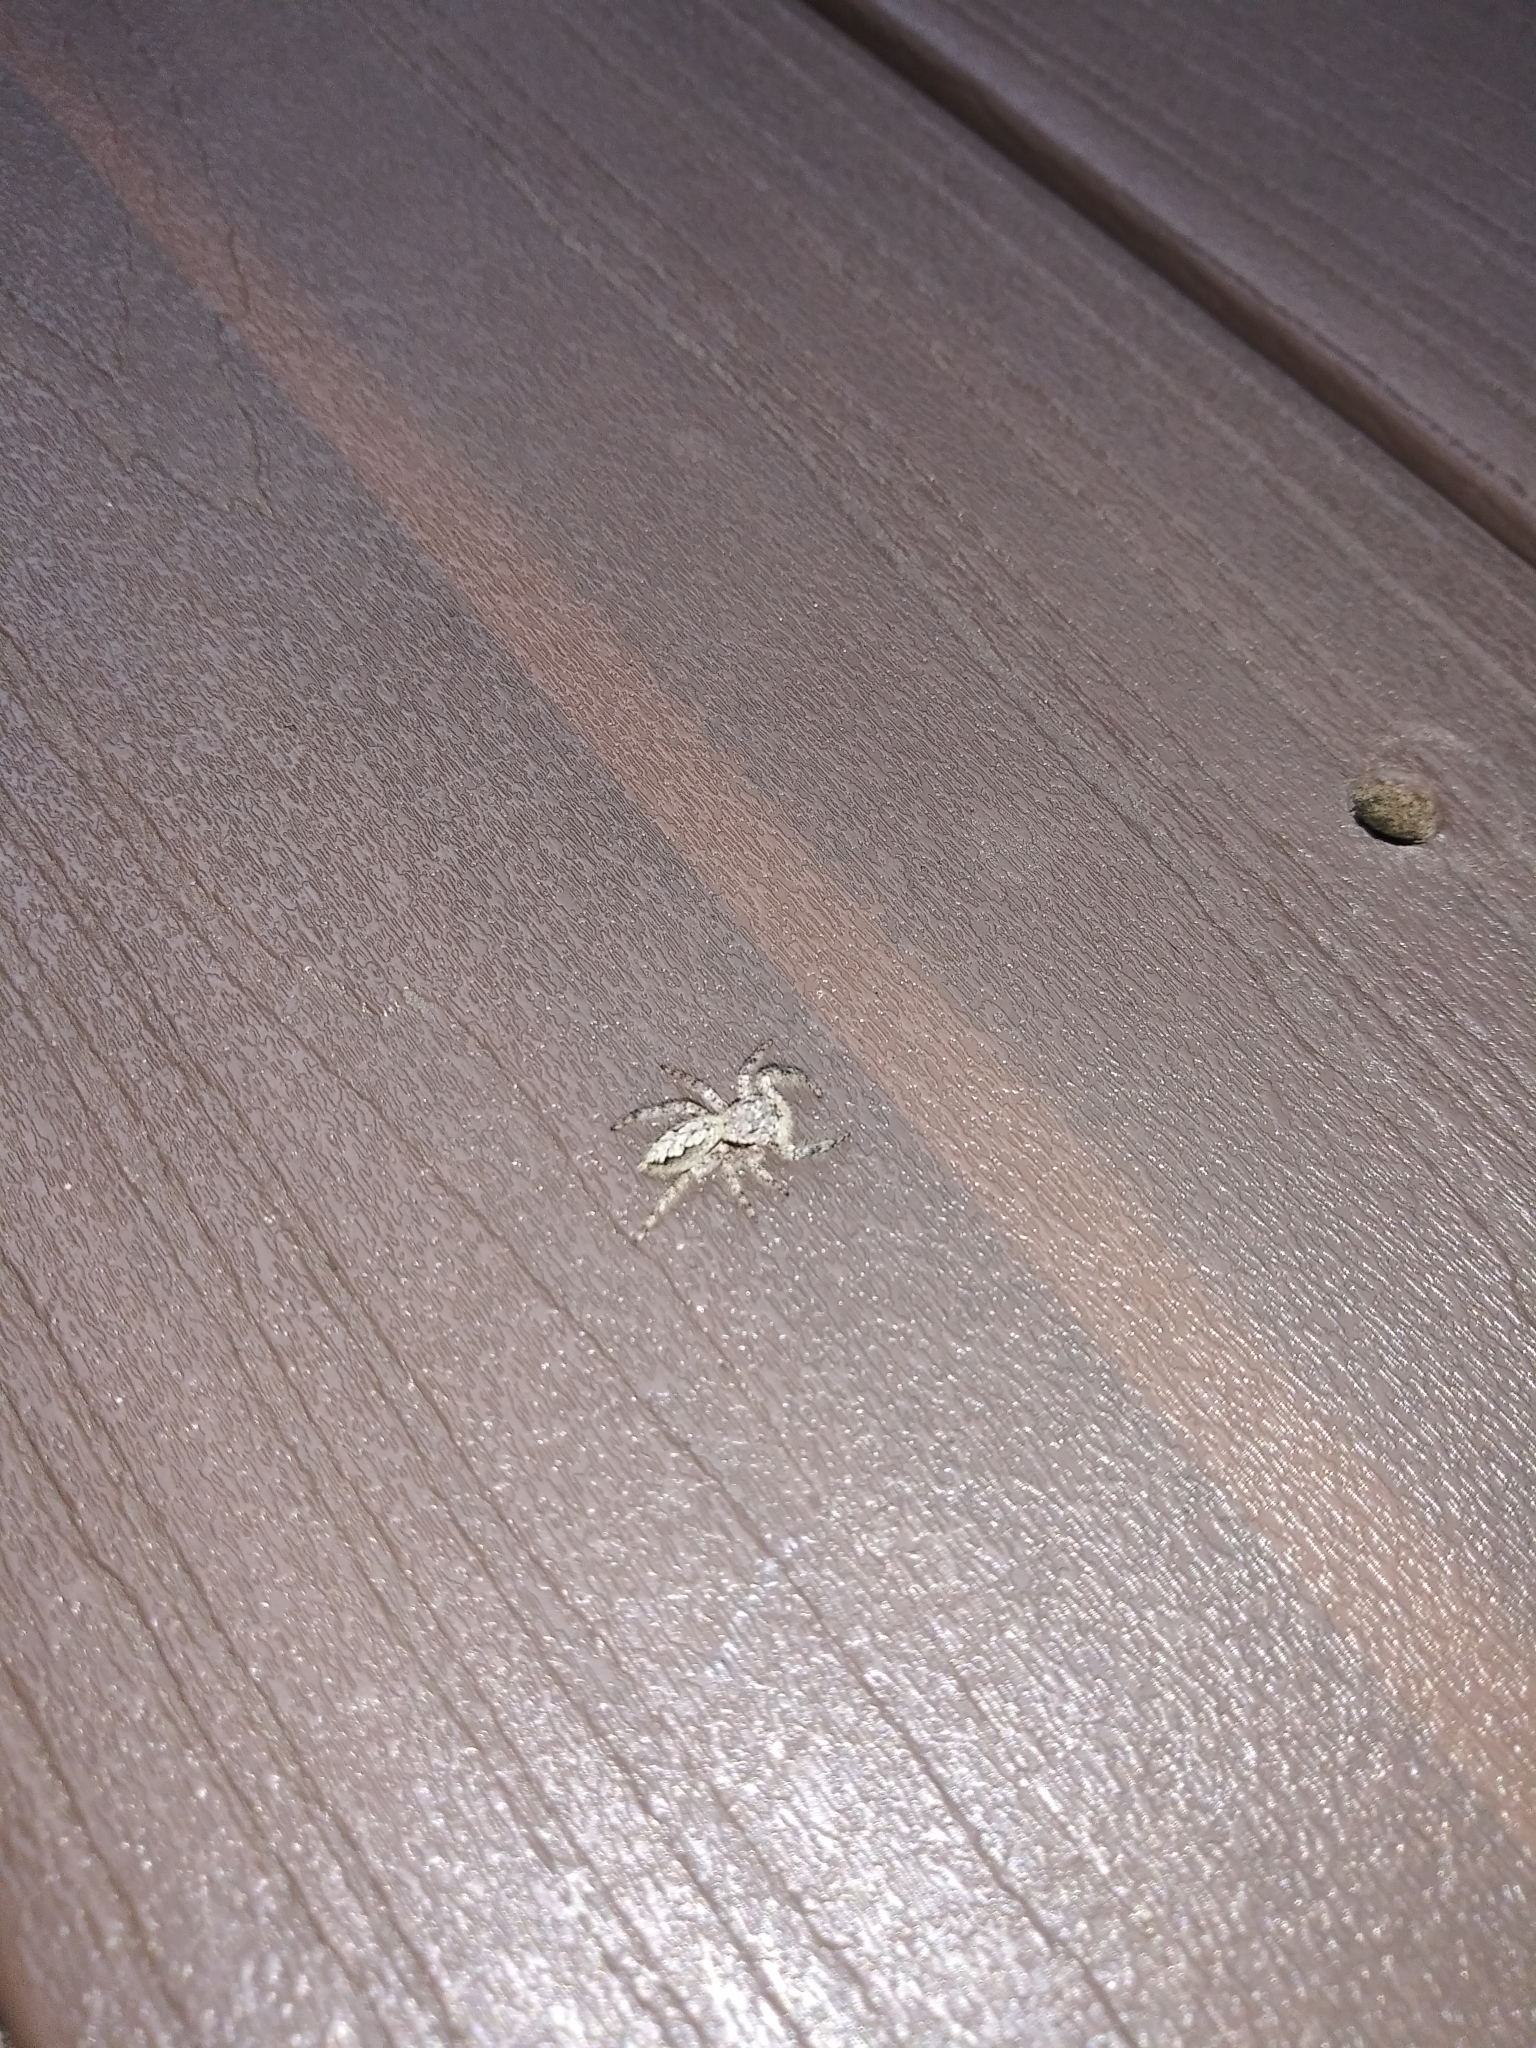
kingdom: Animalia
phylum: Arthropoda
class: Arachnida
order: Araneae
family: Salticidae
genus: Platycryptus
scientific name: Platycryptus undatus
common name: Tan jumping spider
